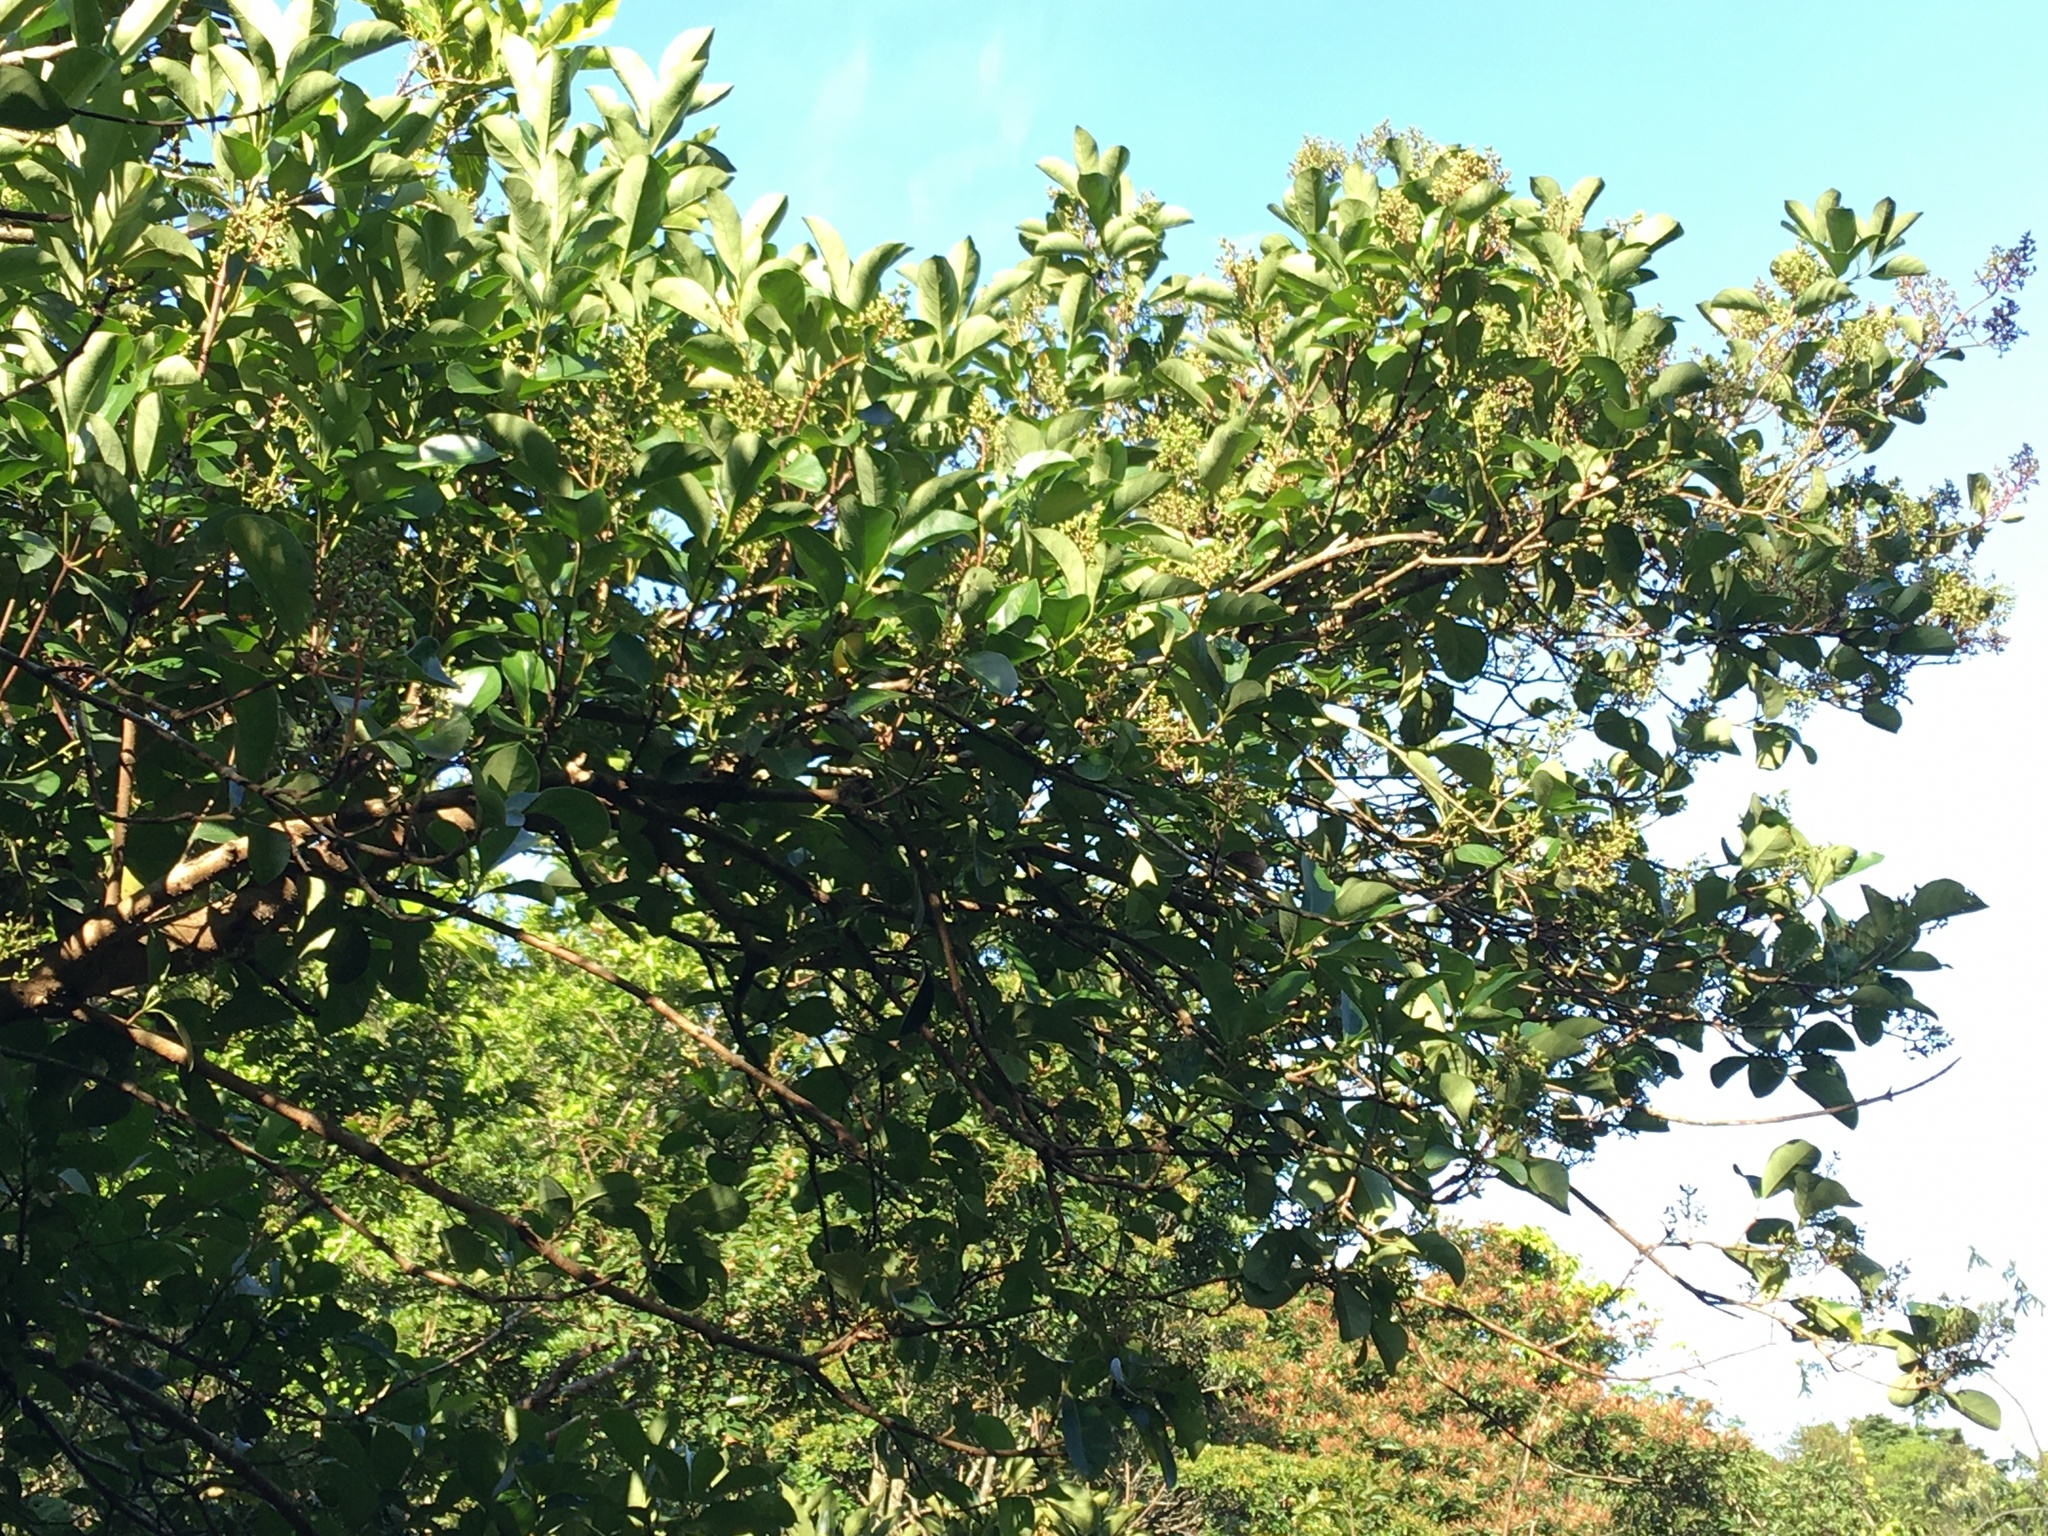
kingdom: Plantae
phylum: Tracheophyta
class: Magnoliopsida
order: Dipsacales
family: Viburnaceae
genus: Viburnum
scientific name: Viburnum odoratissimum
